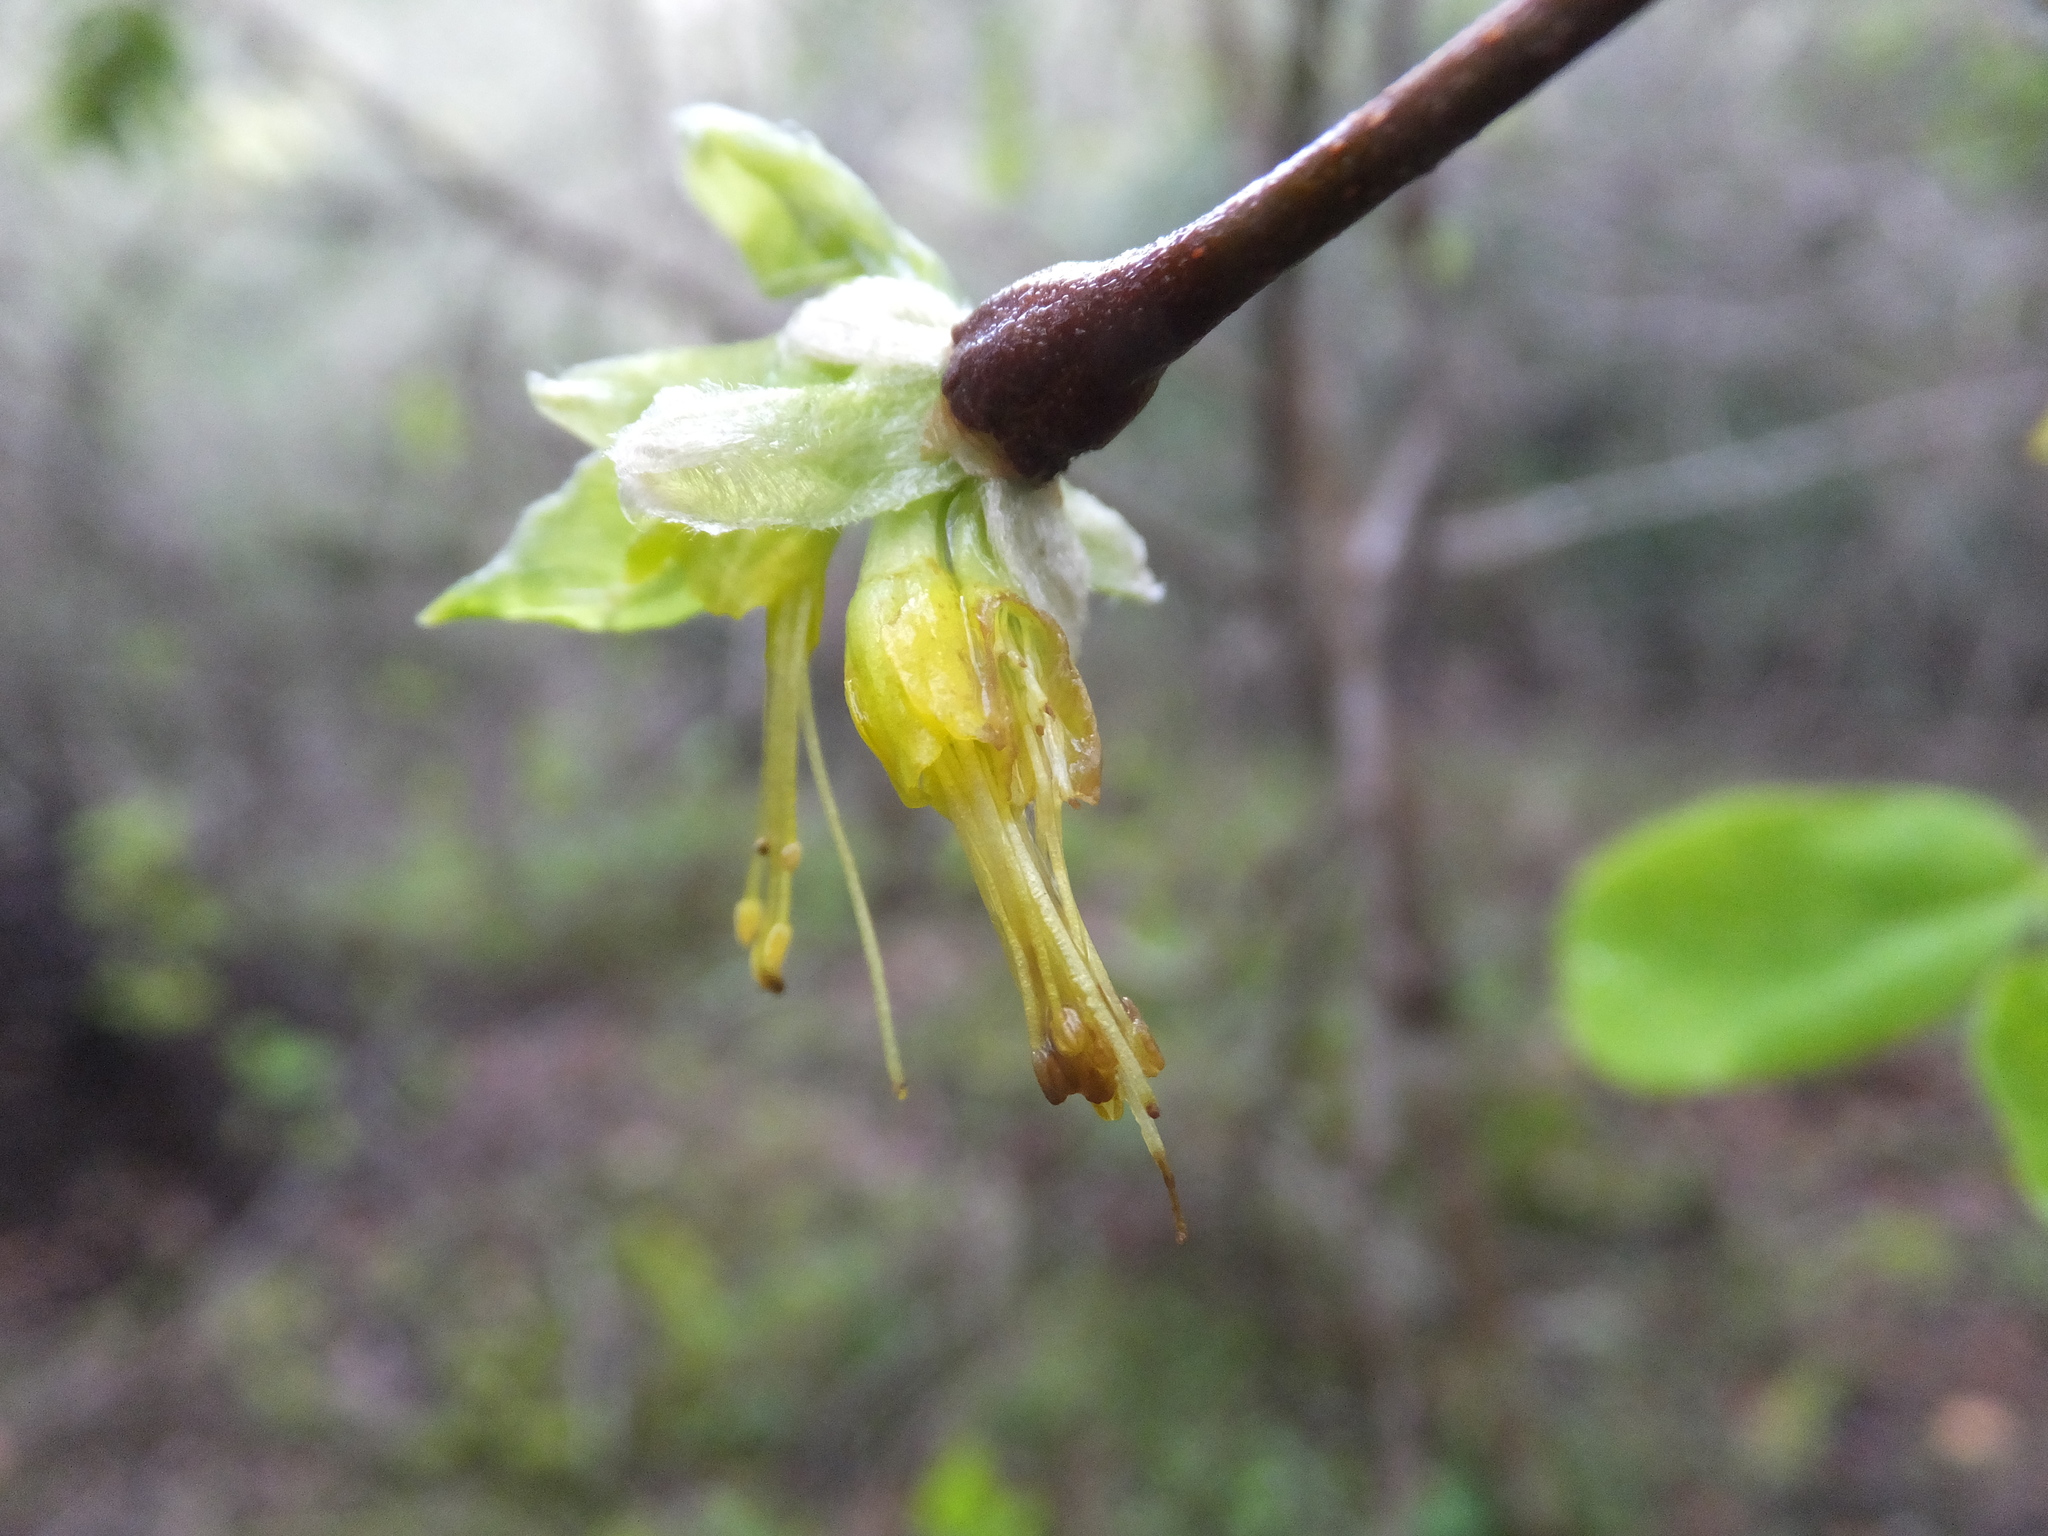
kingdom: Plantae
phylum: Tracheophyta
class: Magnoliopsida
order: Malvales
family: Thymelaeaceae
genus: Dirca
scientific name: Dirca occidentalis
